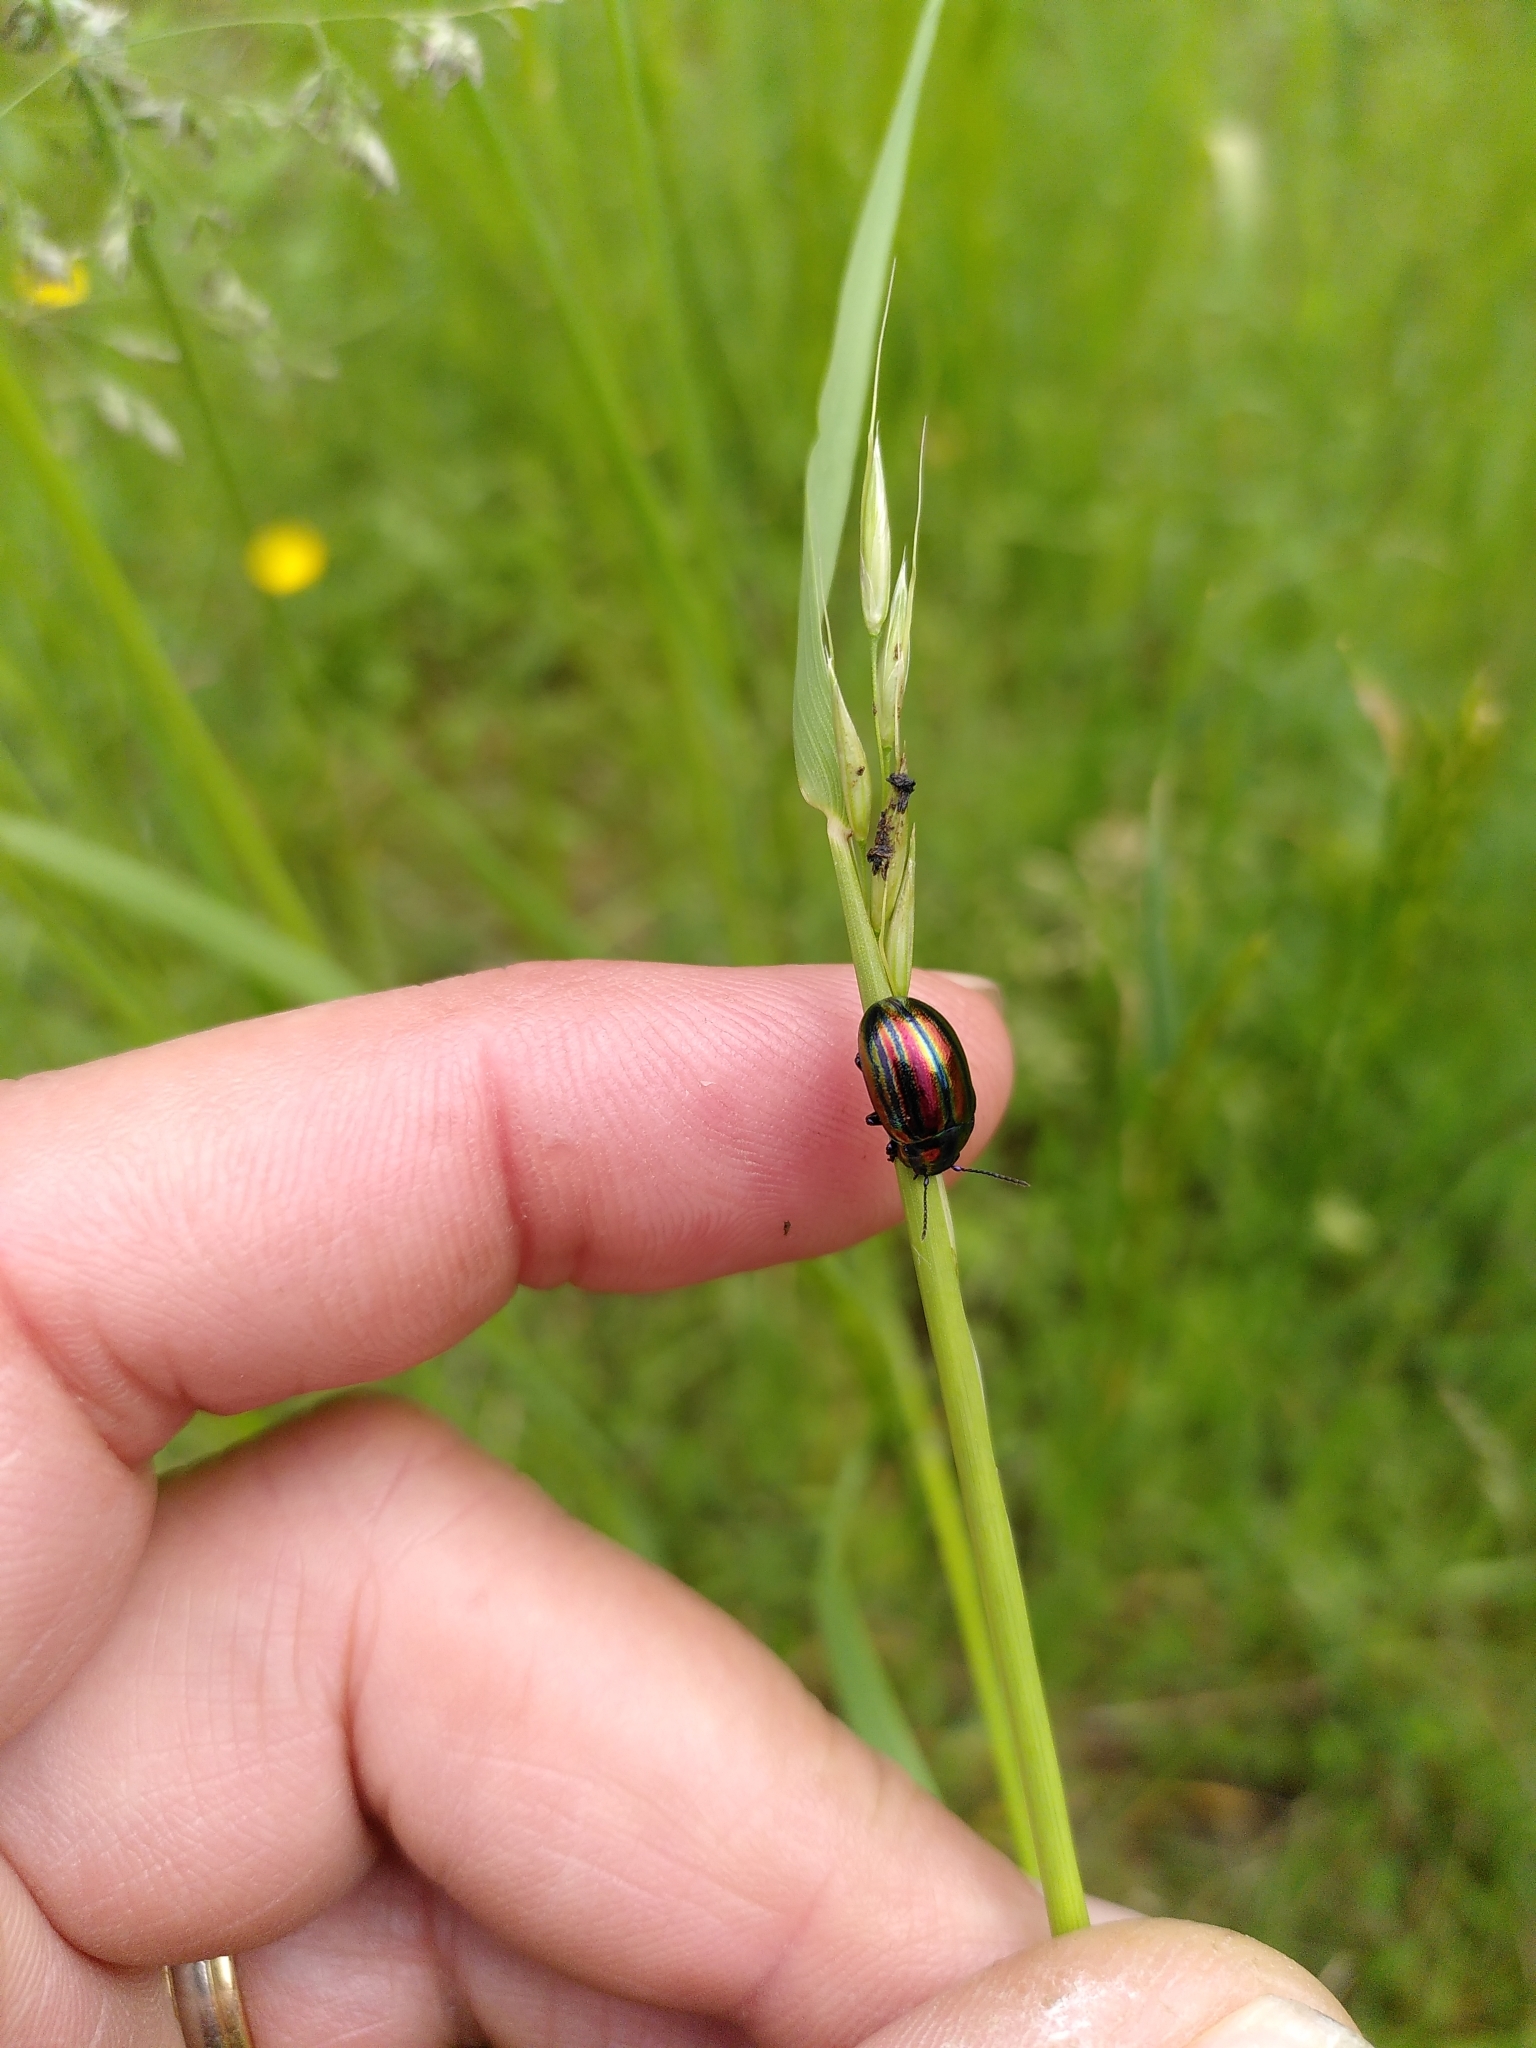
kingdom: Animalia
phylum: Arthropoda
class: Insecta
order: Coleoptera
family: Chrysomelidae
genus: Chrysolina
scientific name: Chrysolina cerealis
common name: Rainbow leaf beetle
